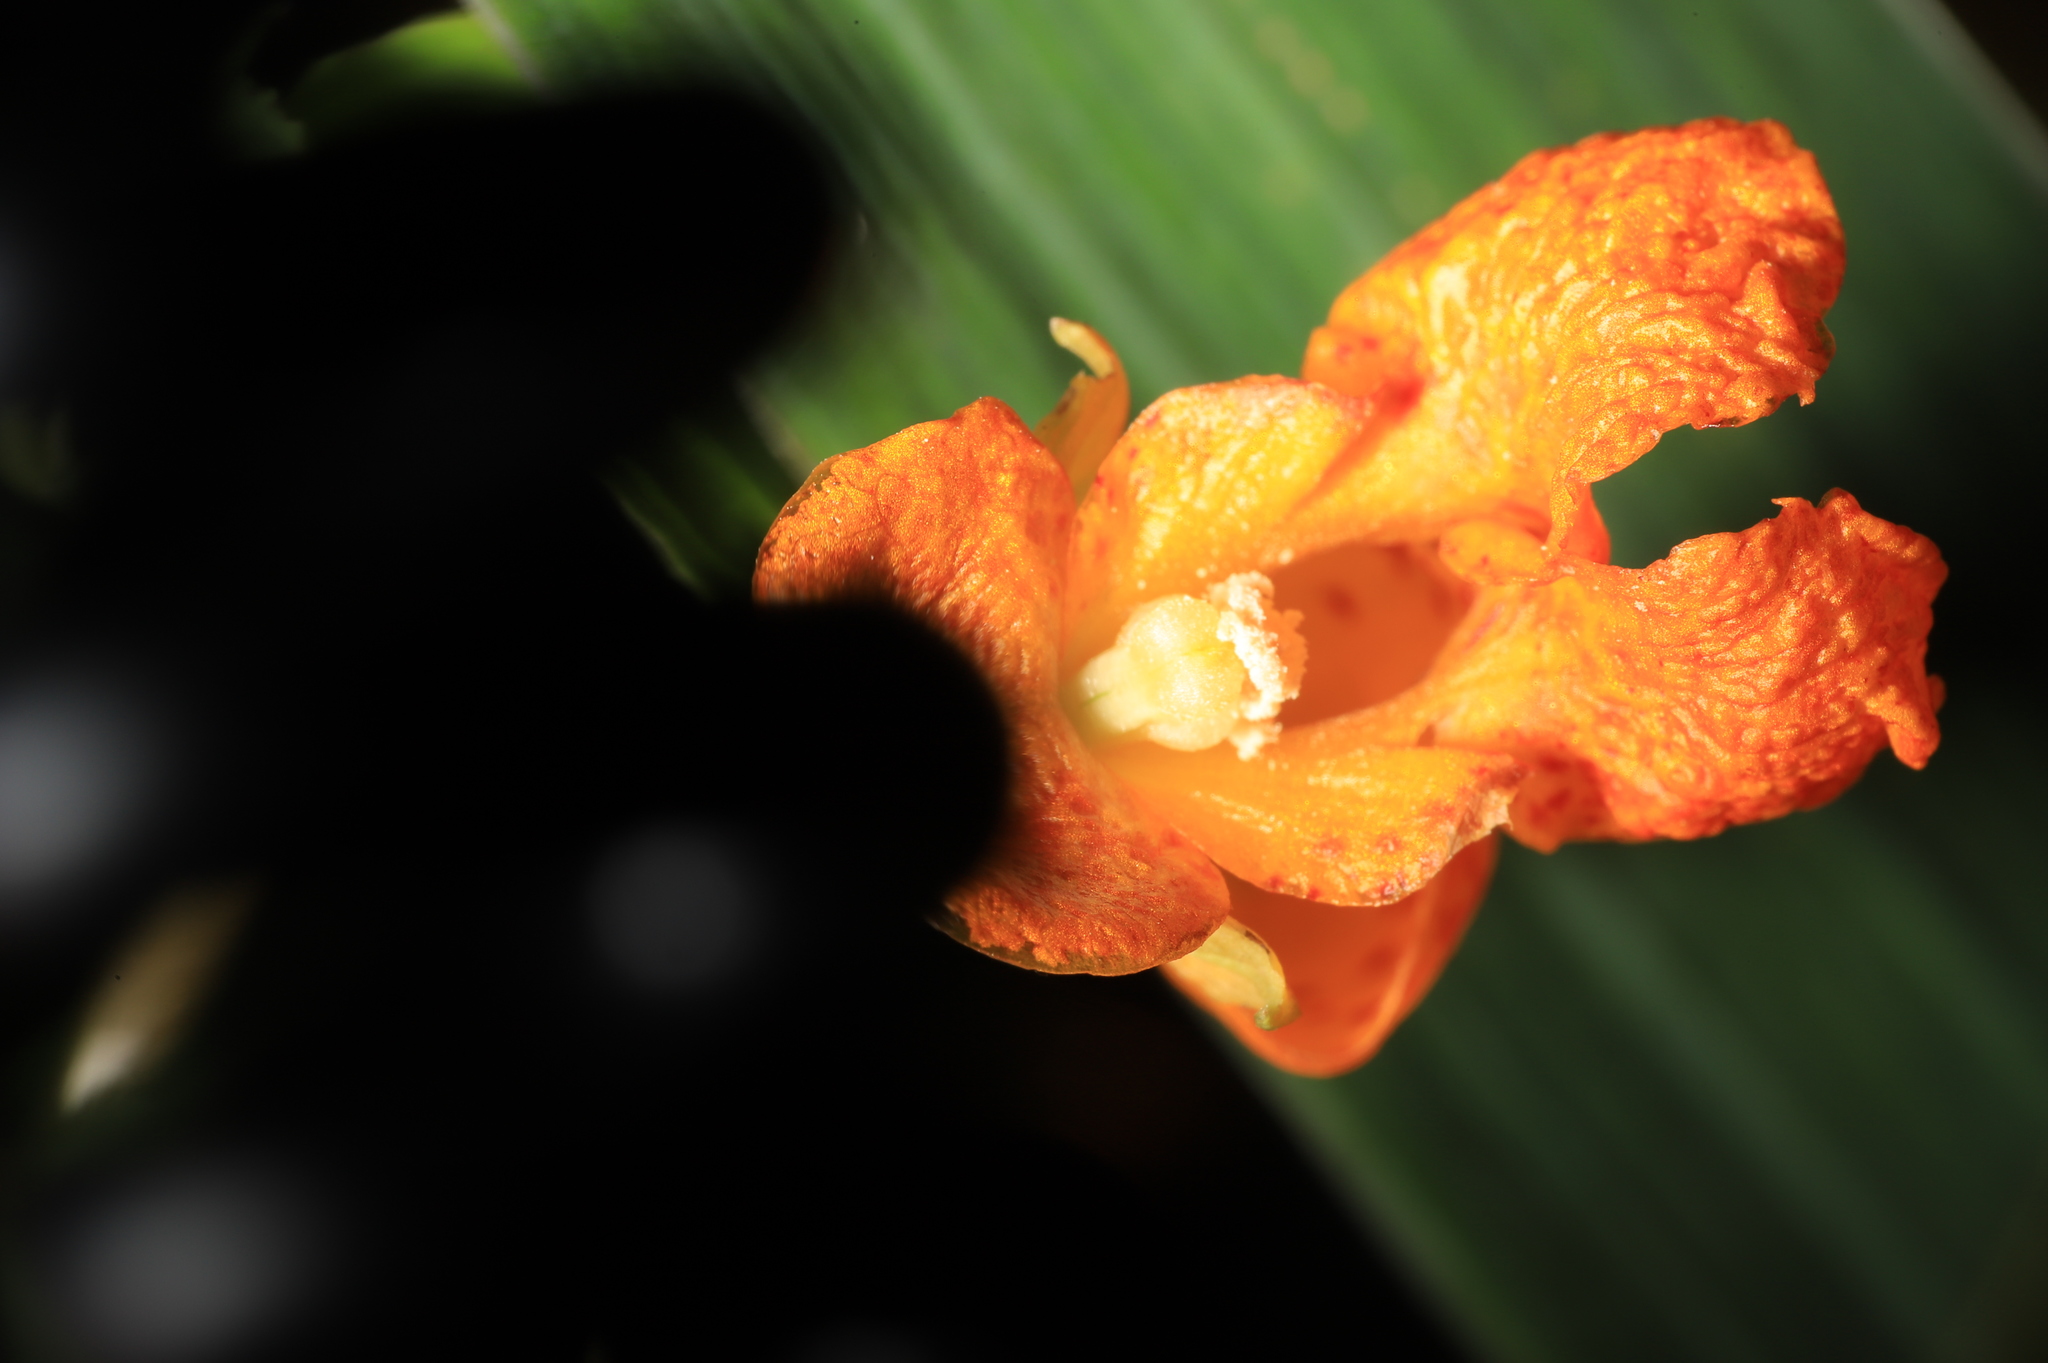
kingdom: Plantae
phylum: Tracheophyta
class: Magnoliopsida
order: Ericales
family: Balsaminaceae
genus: Impatiens
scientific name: Impatiens capensis
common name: Orange balsam
